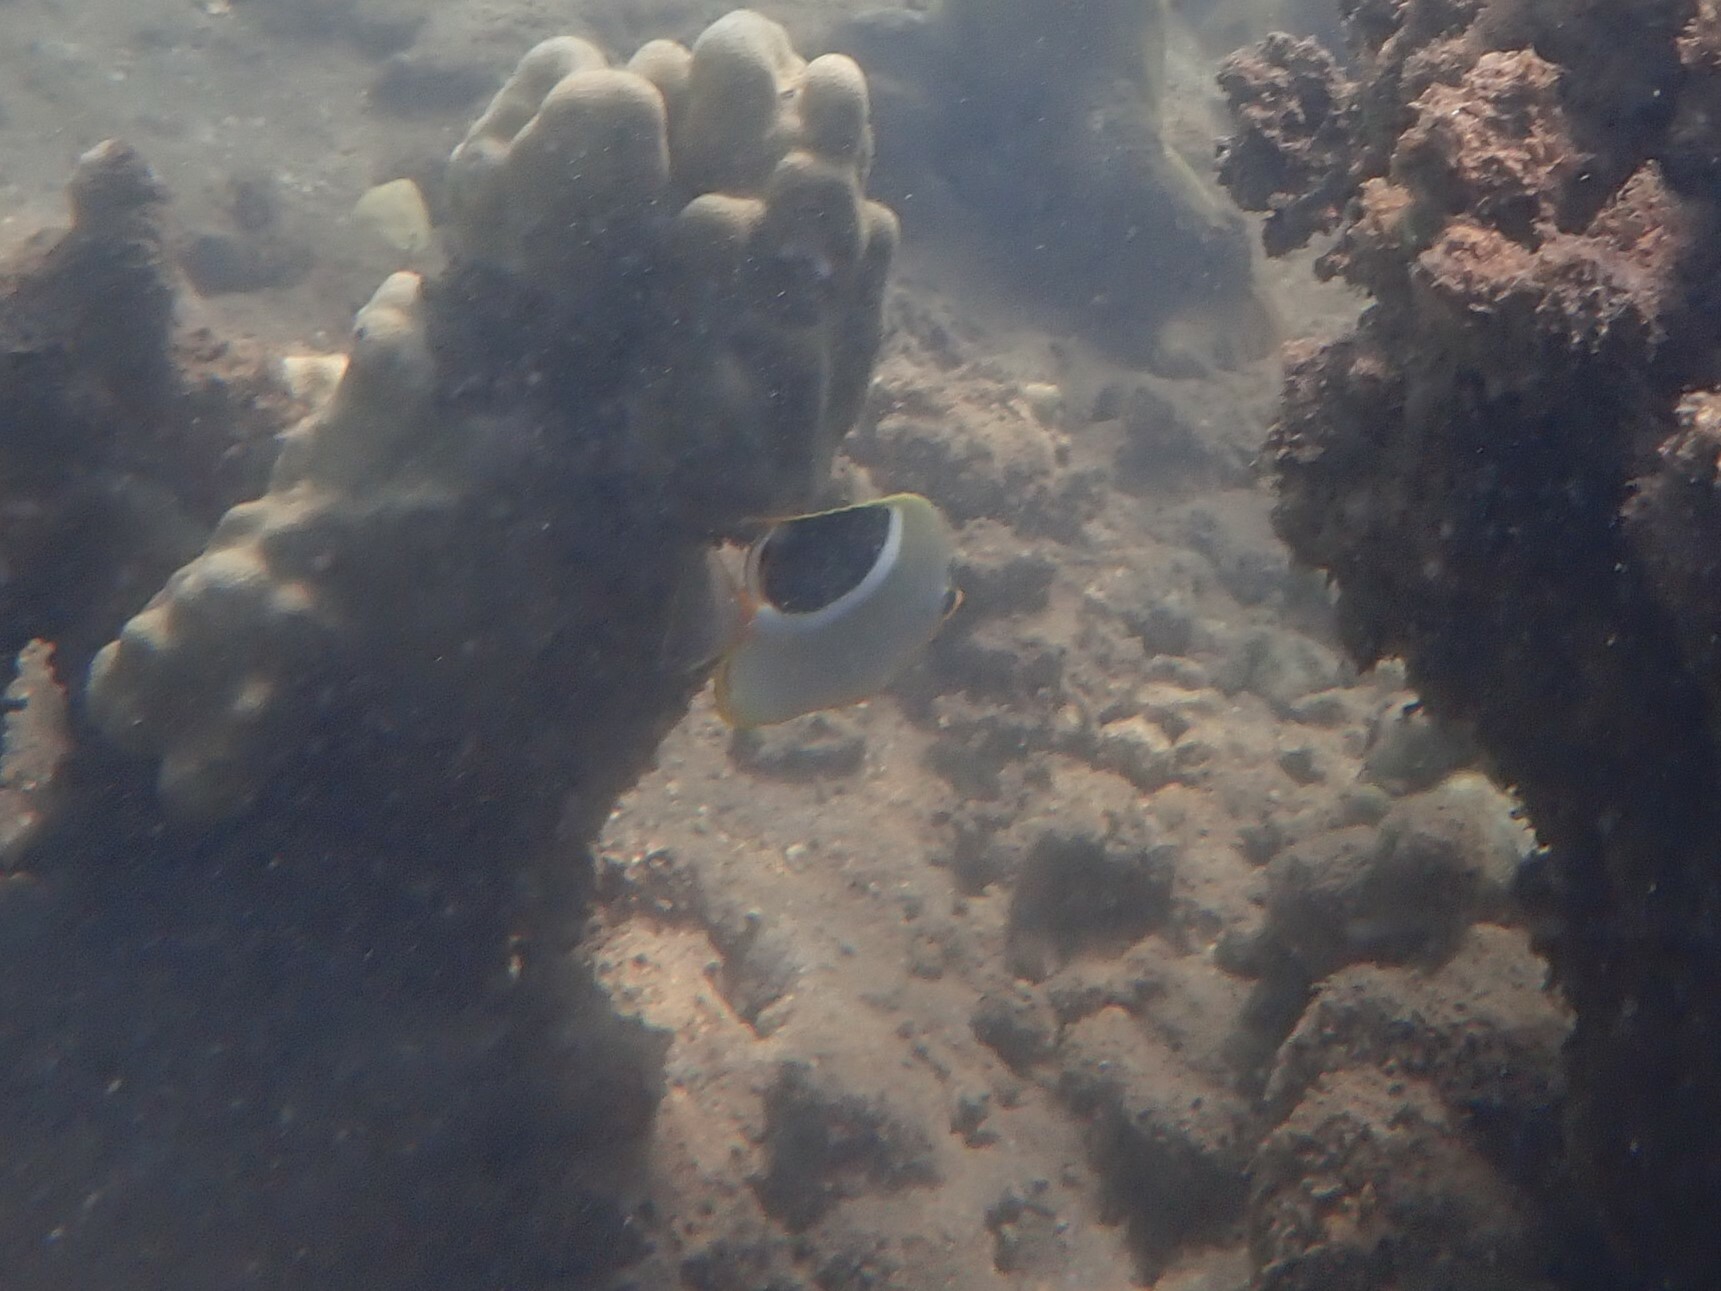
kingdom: Animalia
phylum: Chordata
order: Perciformes
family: Chaetodontidae
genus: Chaetodon
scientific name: Chaetodon ephippium
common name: Saddled butterflyfish
